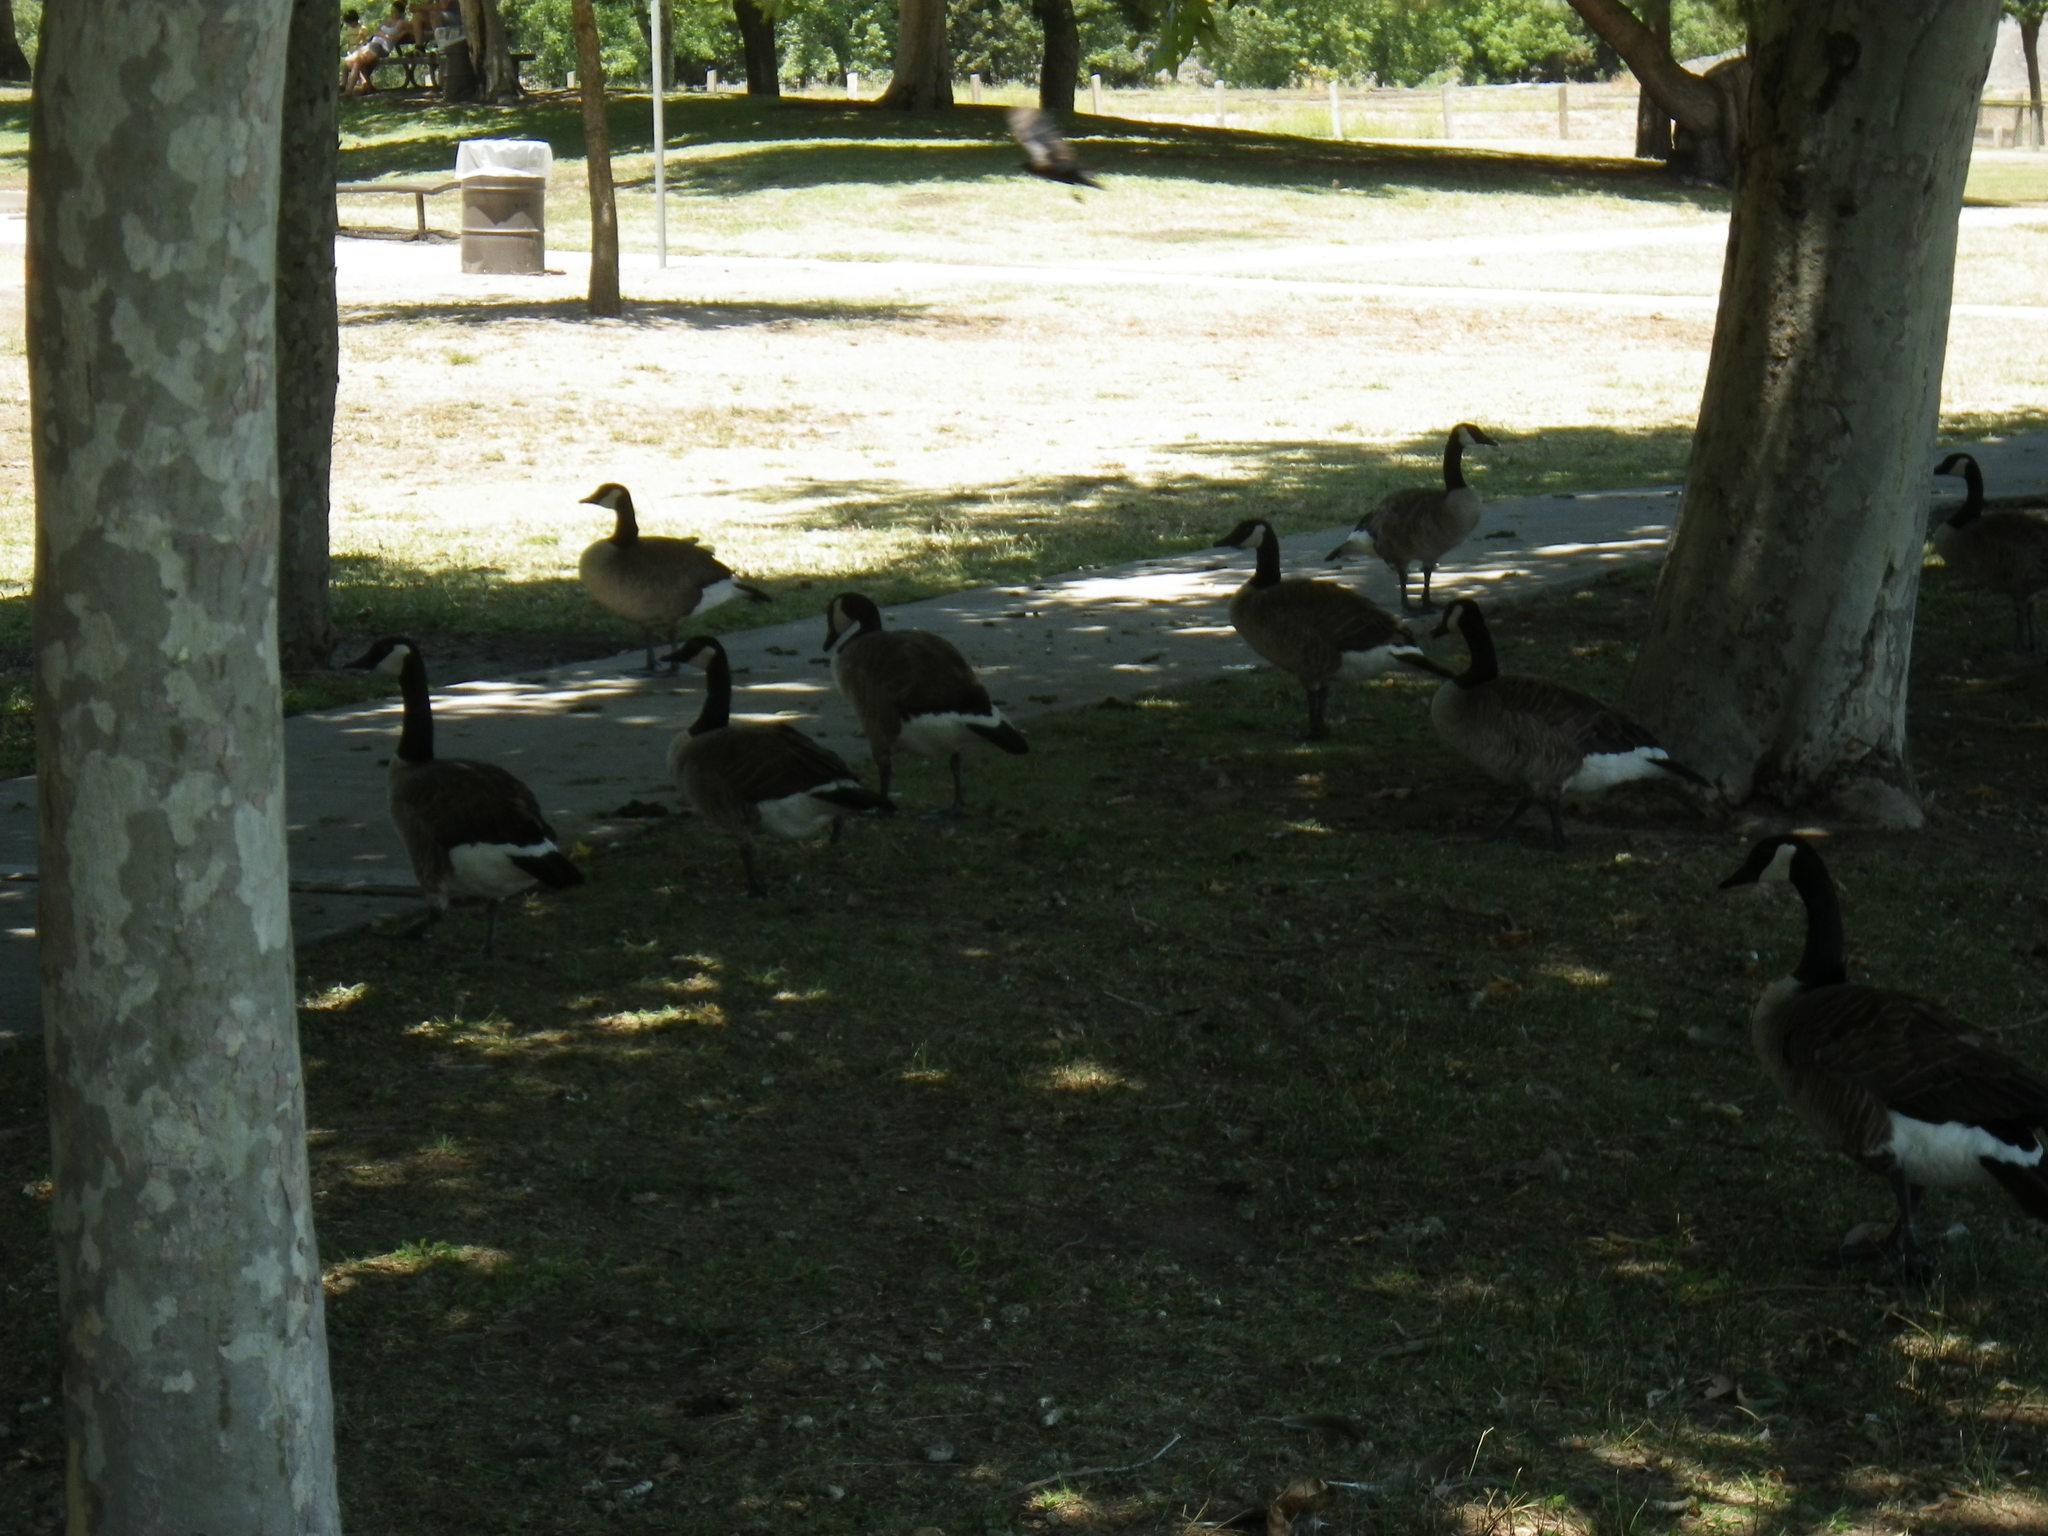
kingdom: Animalia
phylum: Chordata
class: Aves
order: Anseriformes
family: Anatidae
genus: Branta
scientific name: Branta canadensis
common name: Canada goose
